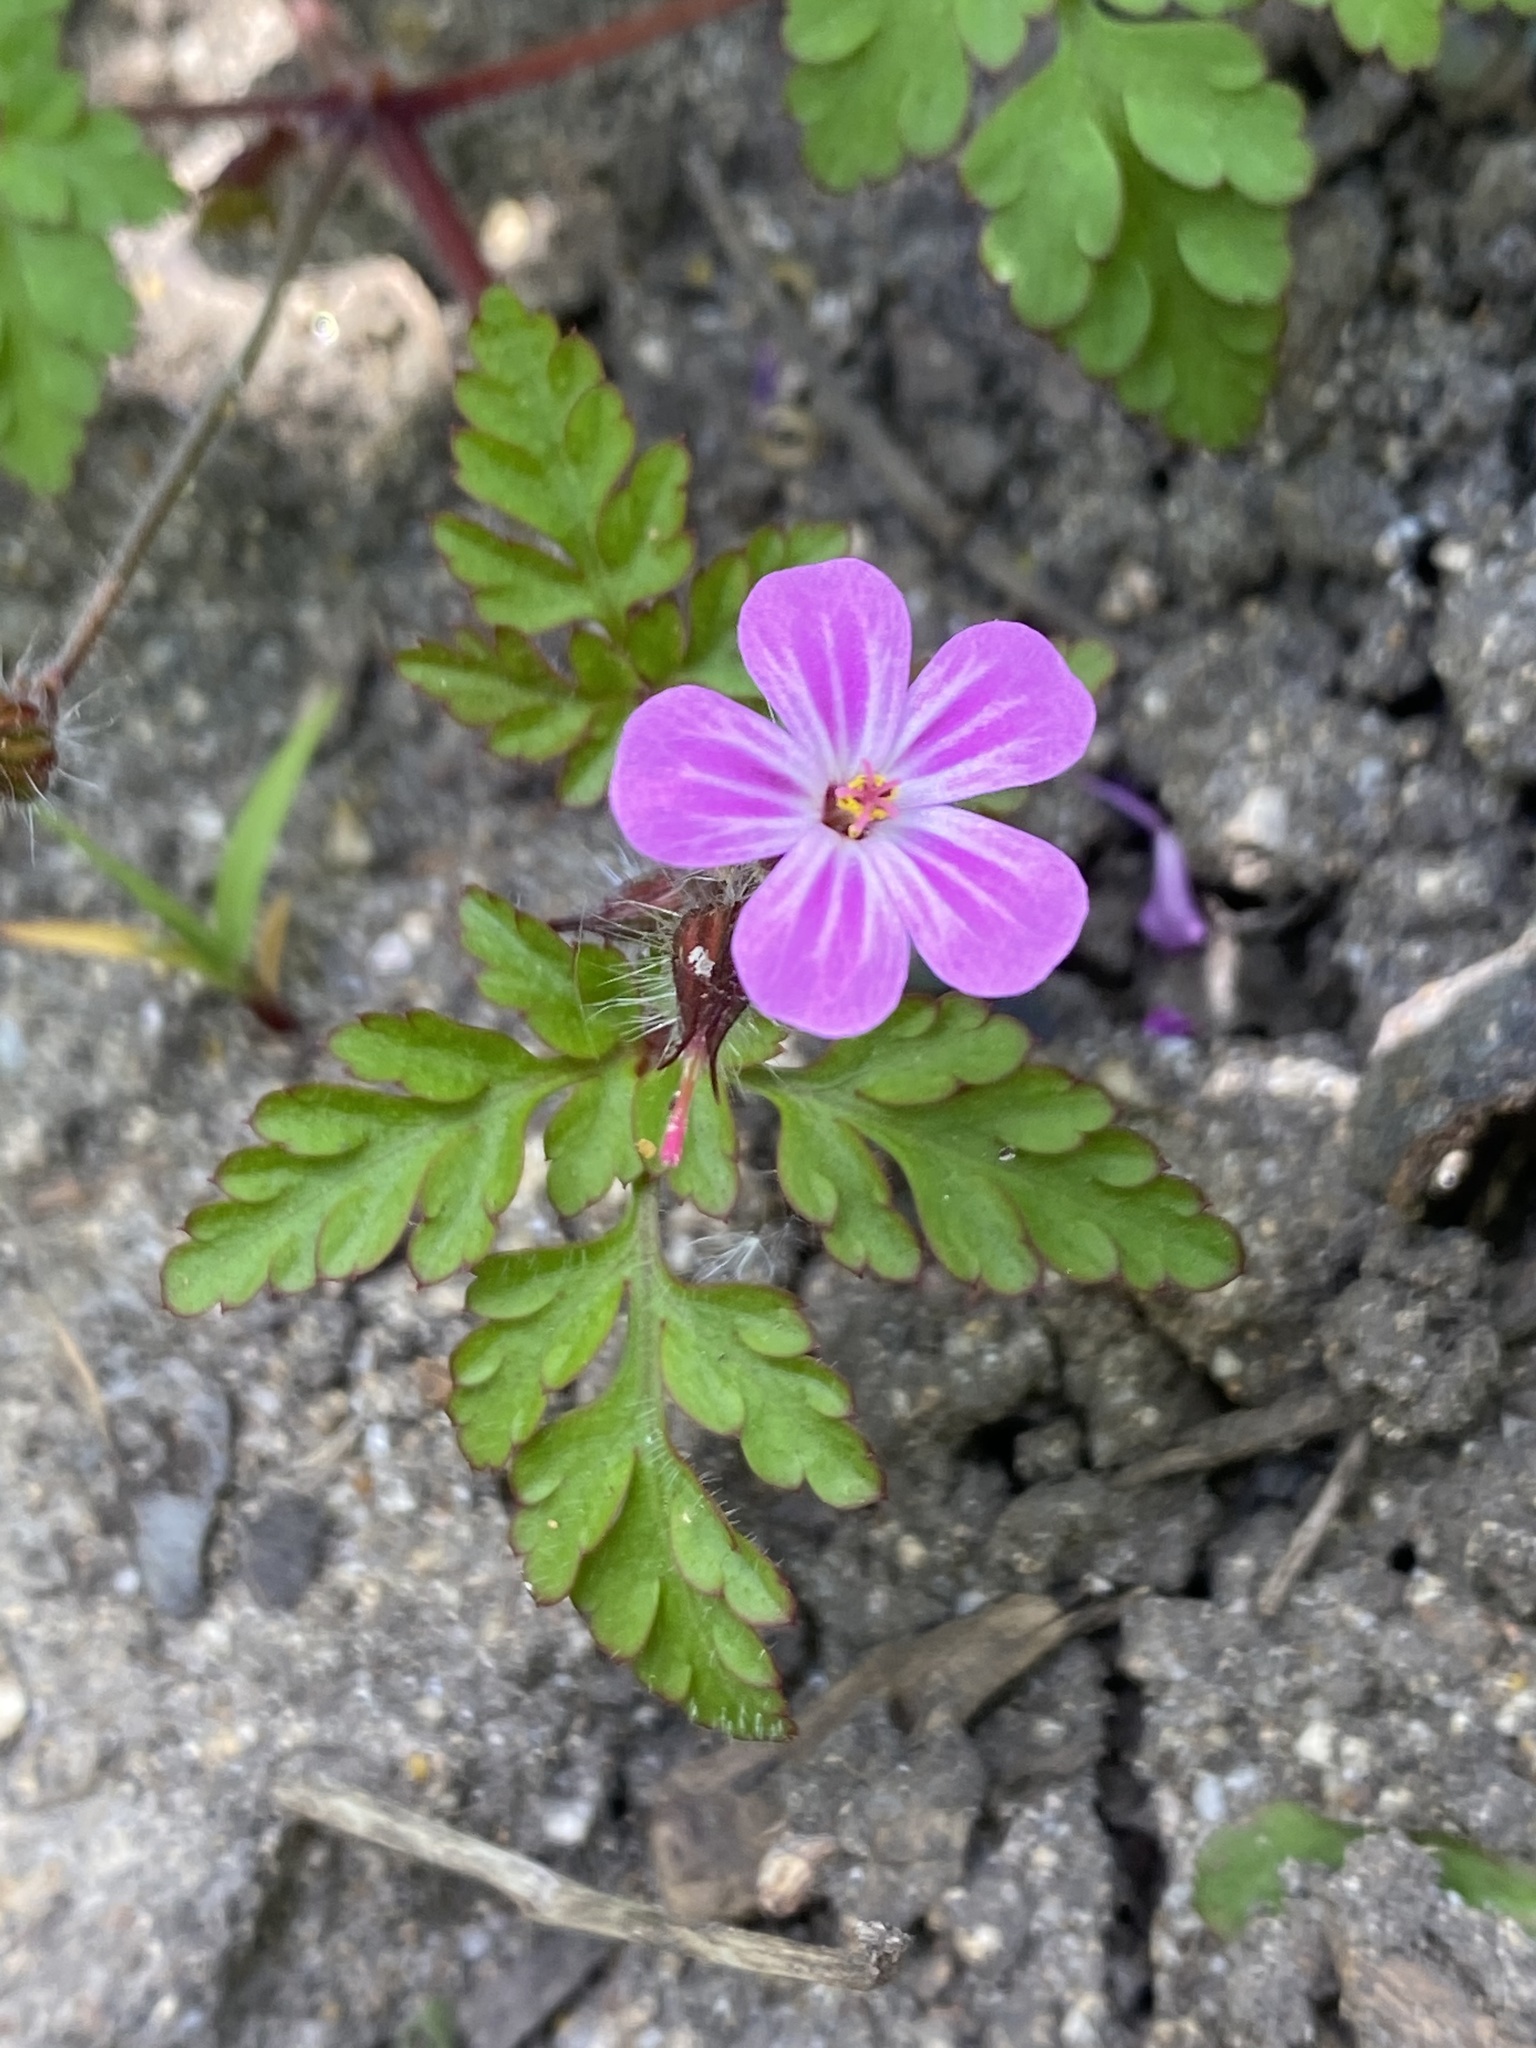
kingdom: Plantae
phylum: Tracheophyta
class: Magnoliopsida
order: Geraniales
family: Geraniaceae
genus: Geranium
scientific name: Geranium robertianum
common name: Herb-robert
